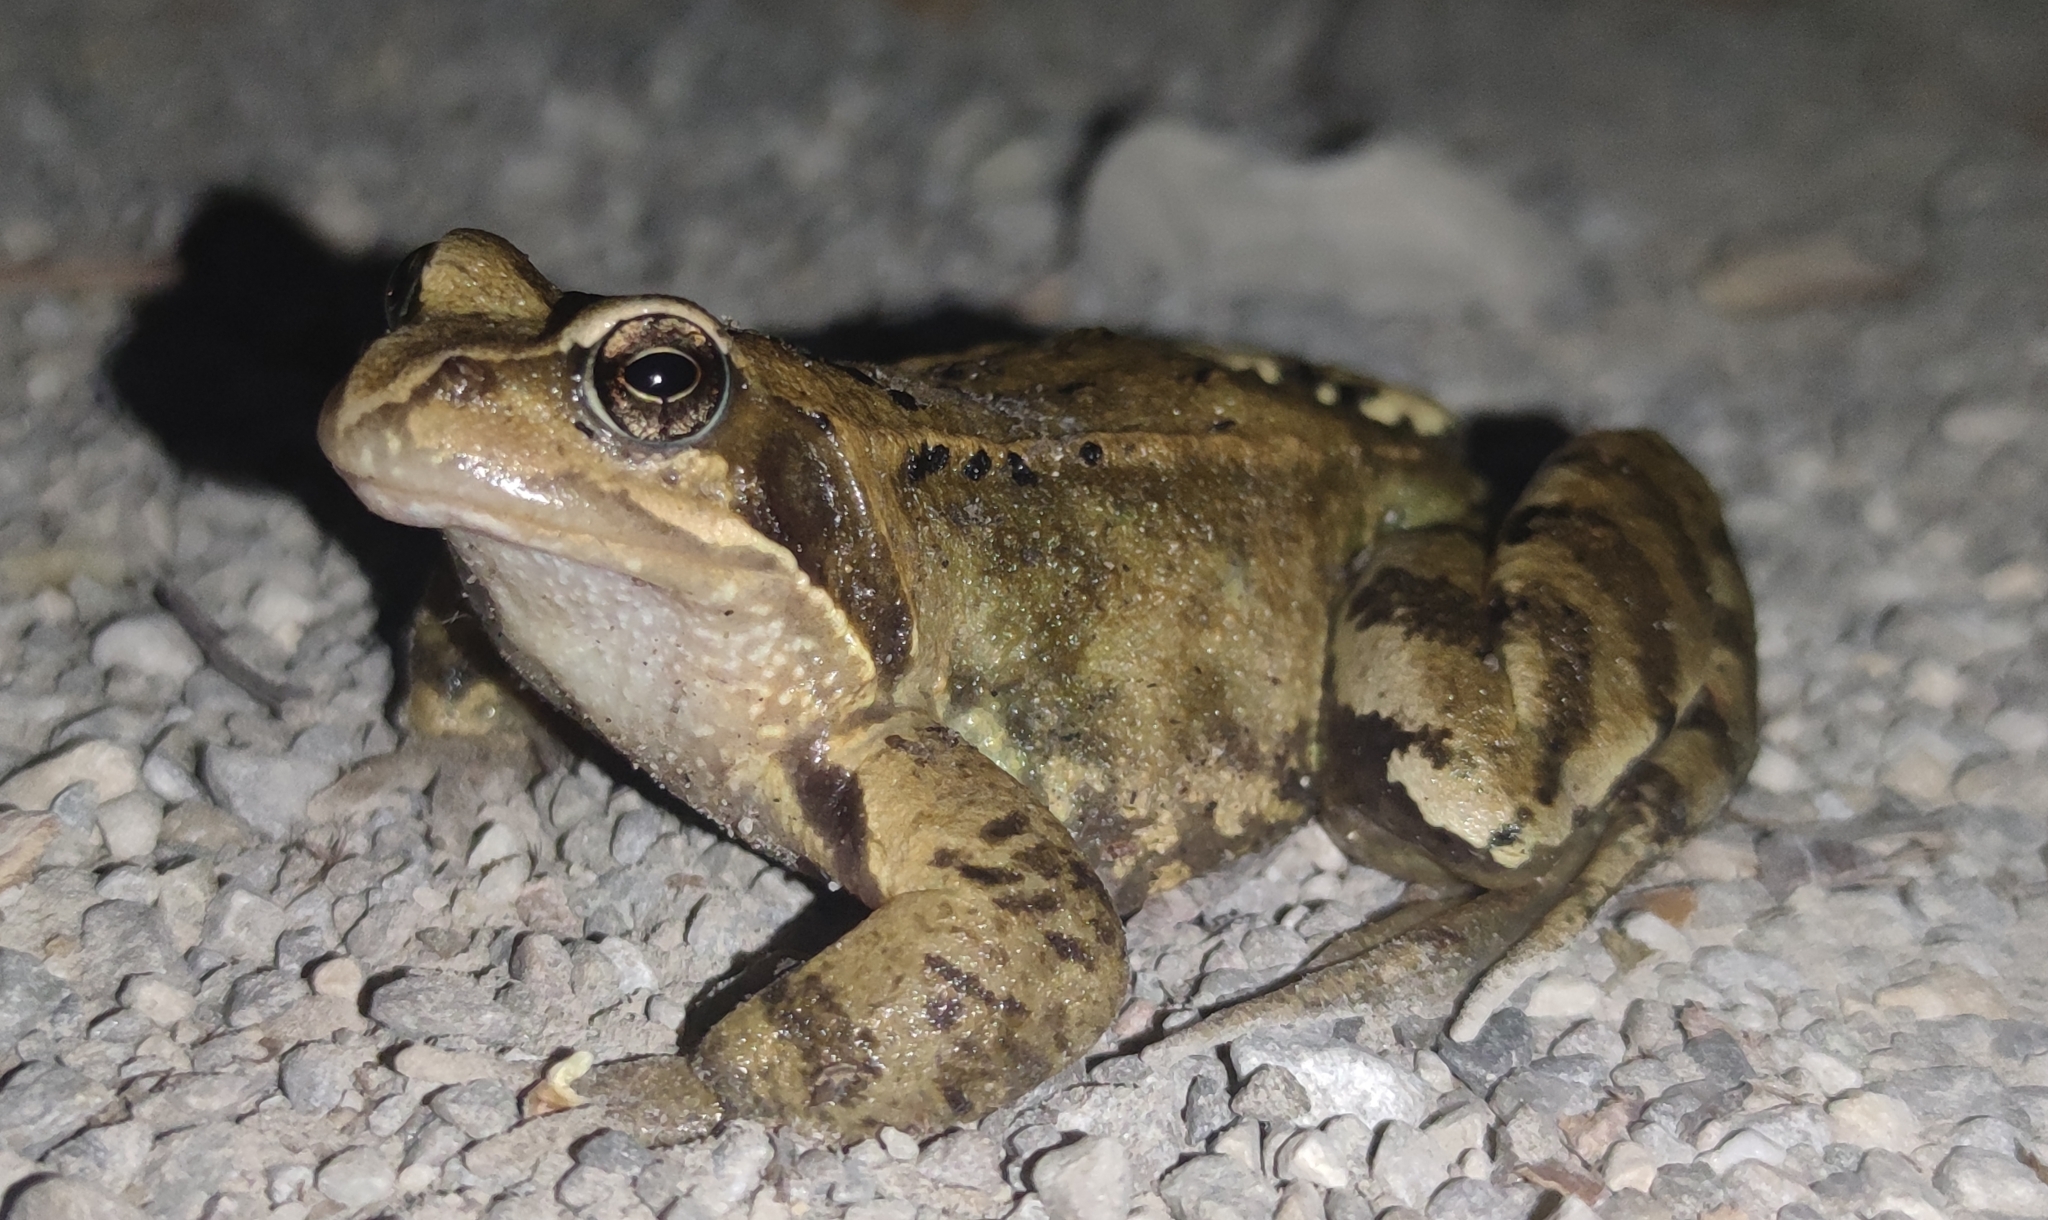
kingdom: Animalia
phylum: Chordata
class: Amphibia
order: Anura
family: Ranidae
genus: Rana
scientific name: Rana temporaria
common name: Common frog
